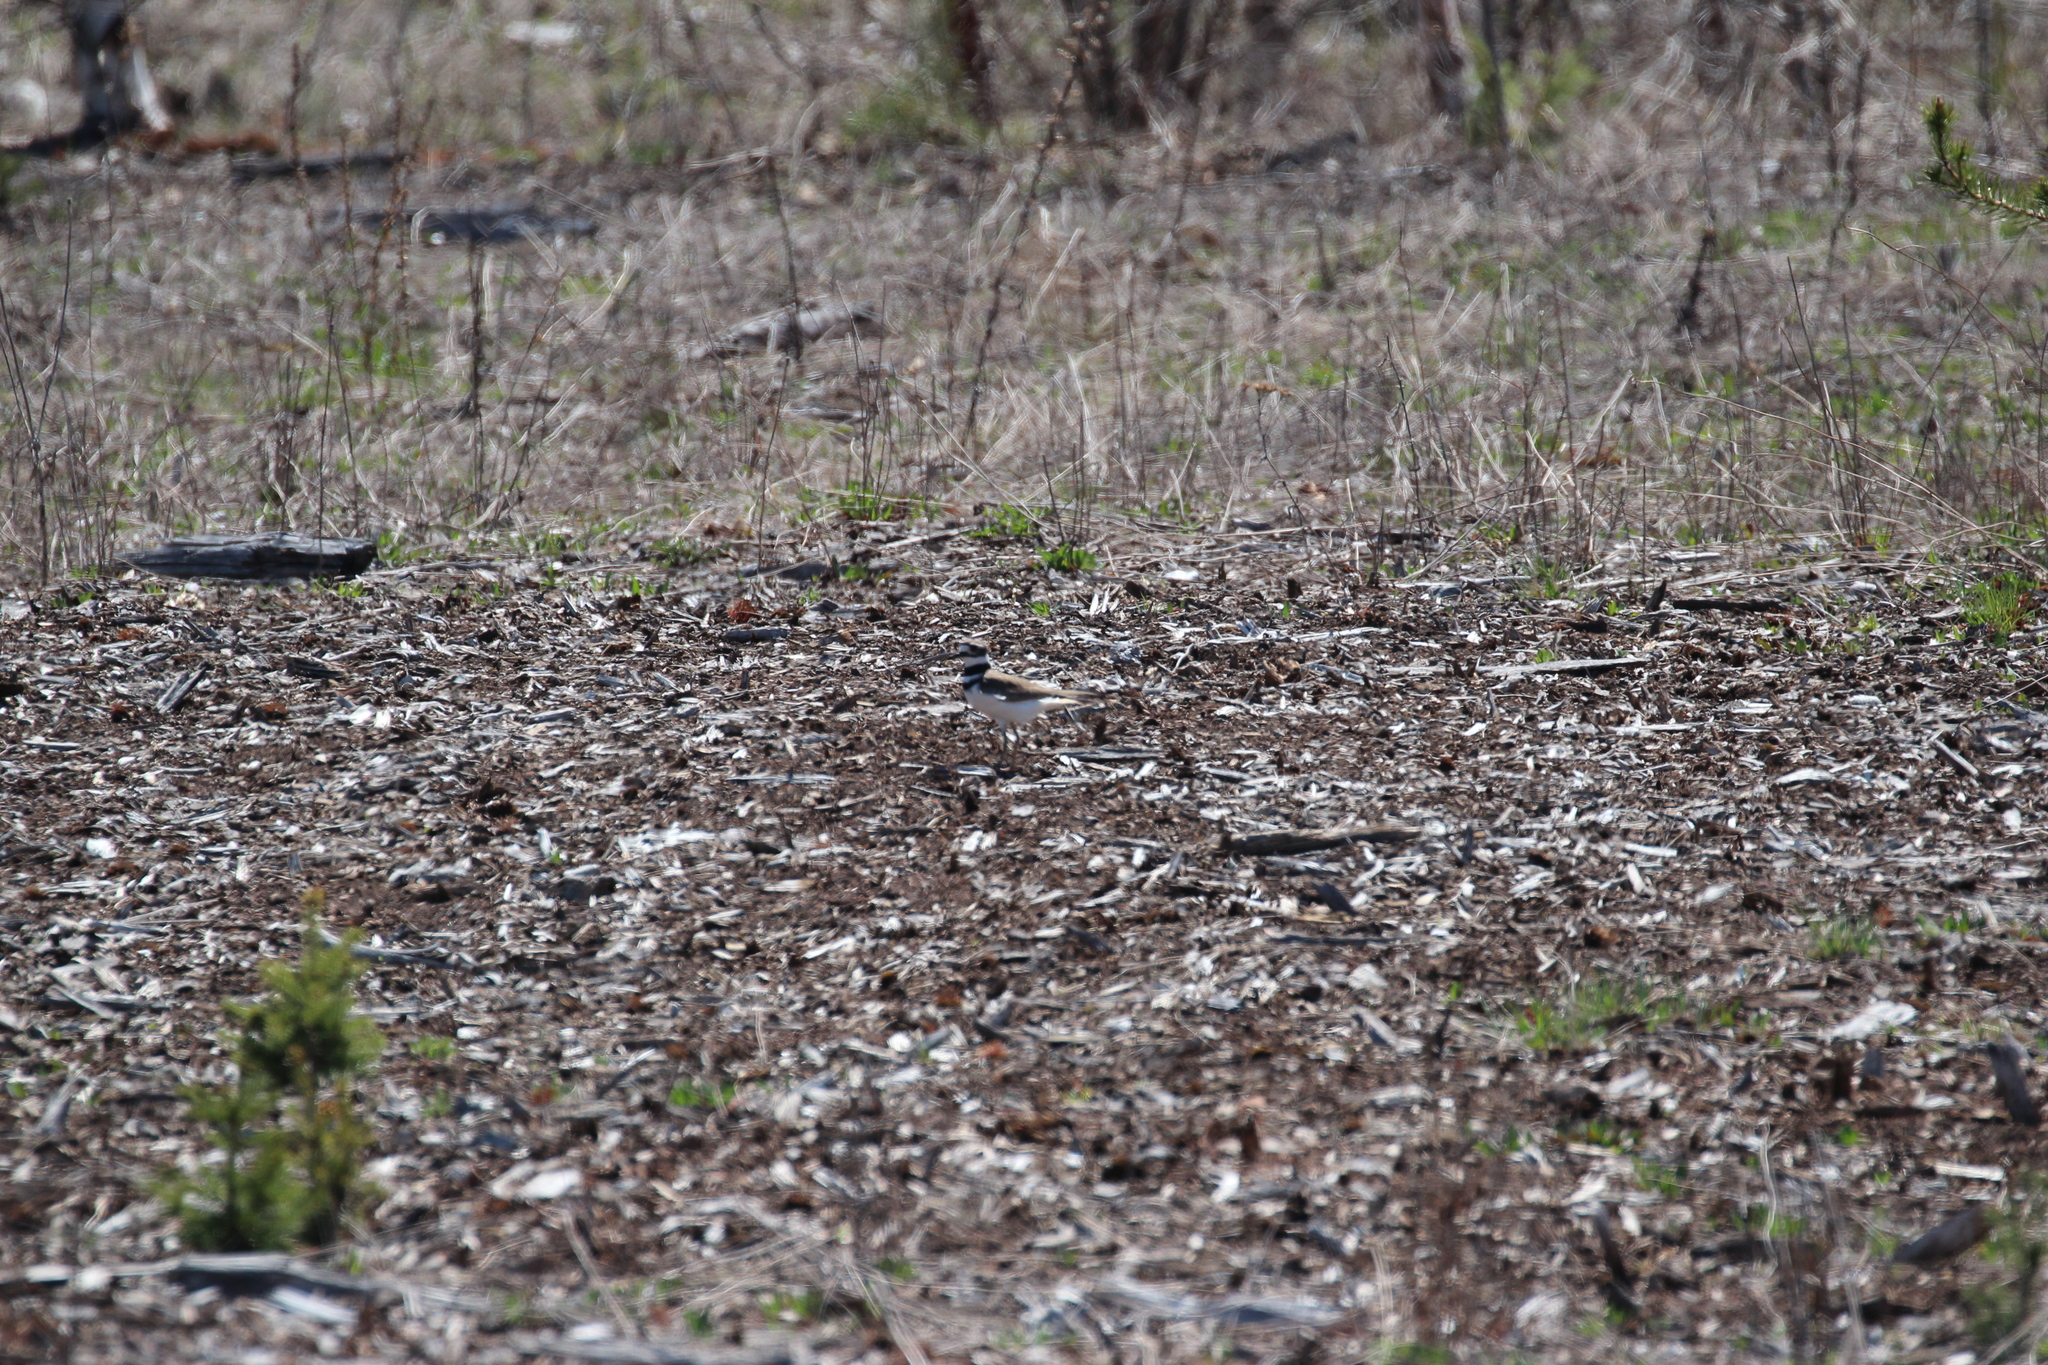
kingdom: Animalia
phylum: Chordata
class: Aves
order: Charadriiformes
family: Charadriidae
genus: Charadrius
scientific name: Charadrius vociferus
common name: Killdeer
